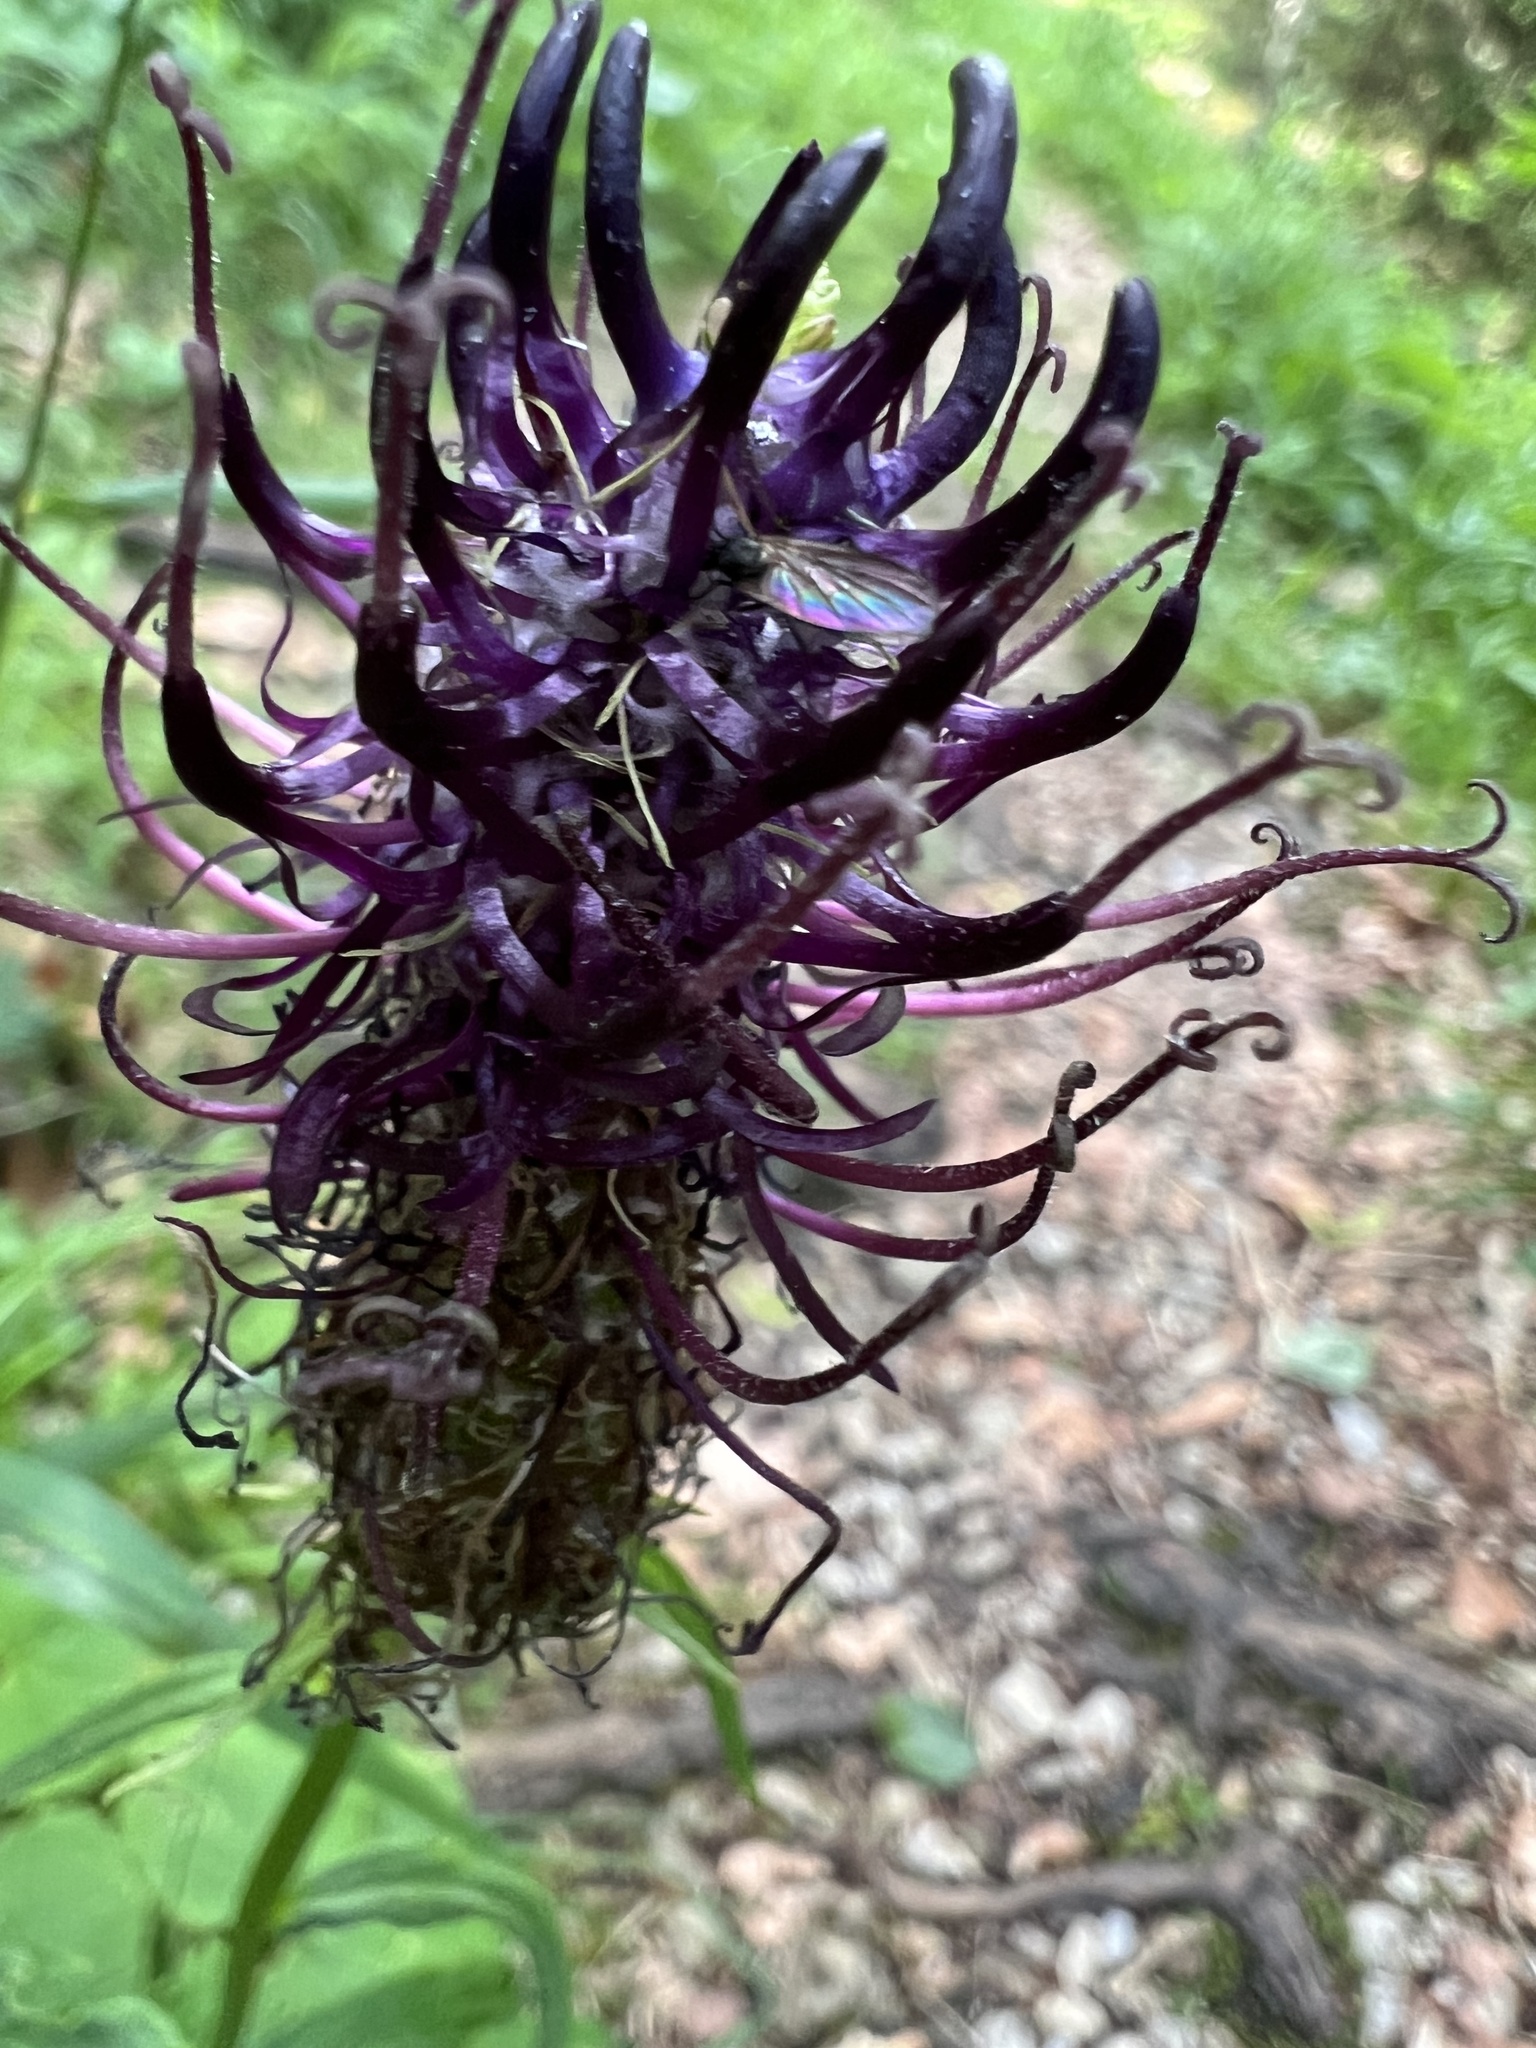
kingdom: Plantae
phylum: Tracheophyta
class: Magnoliopsida
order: Asterales
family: Campanulaceae
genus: Phyteuma
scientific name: Phyteuma ovatum
